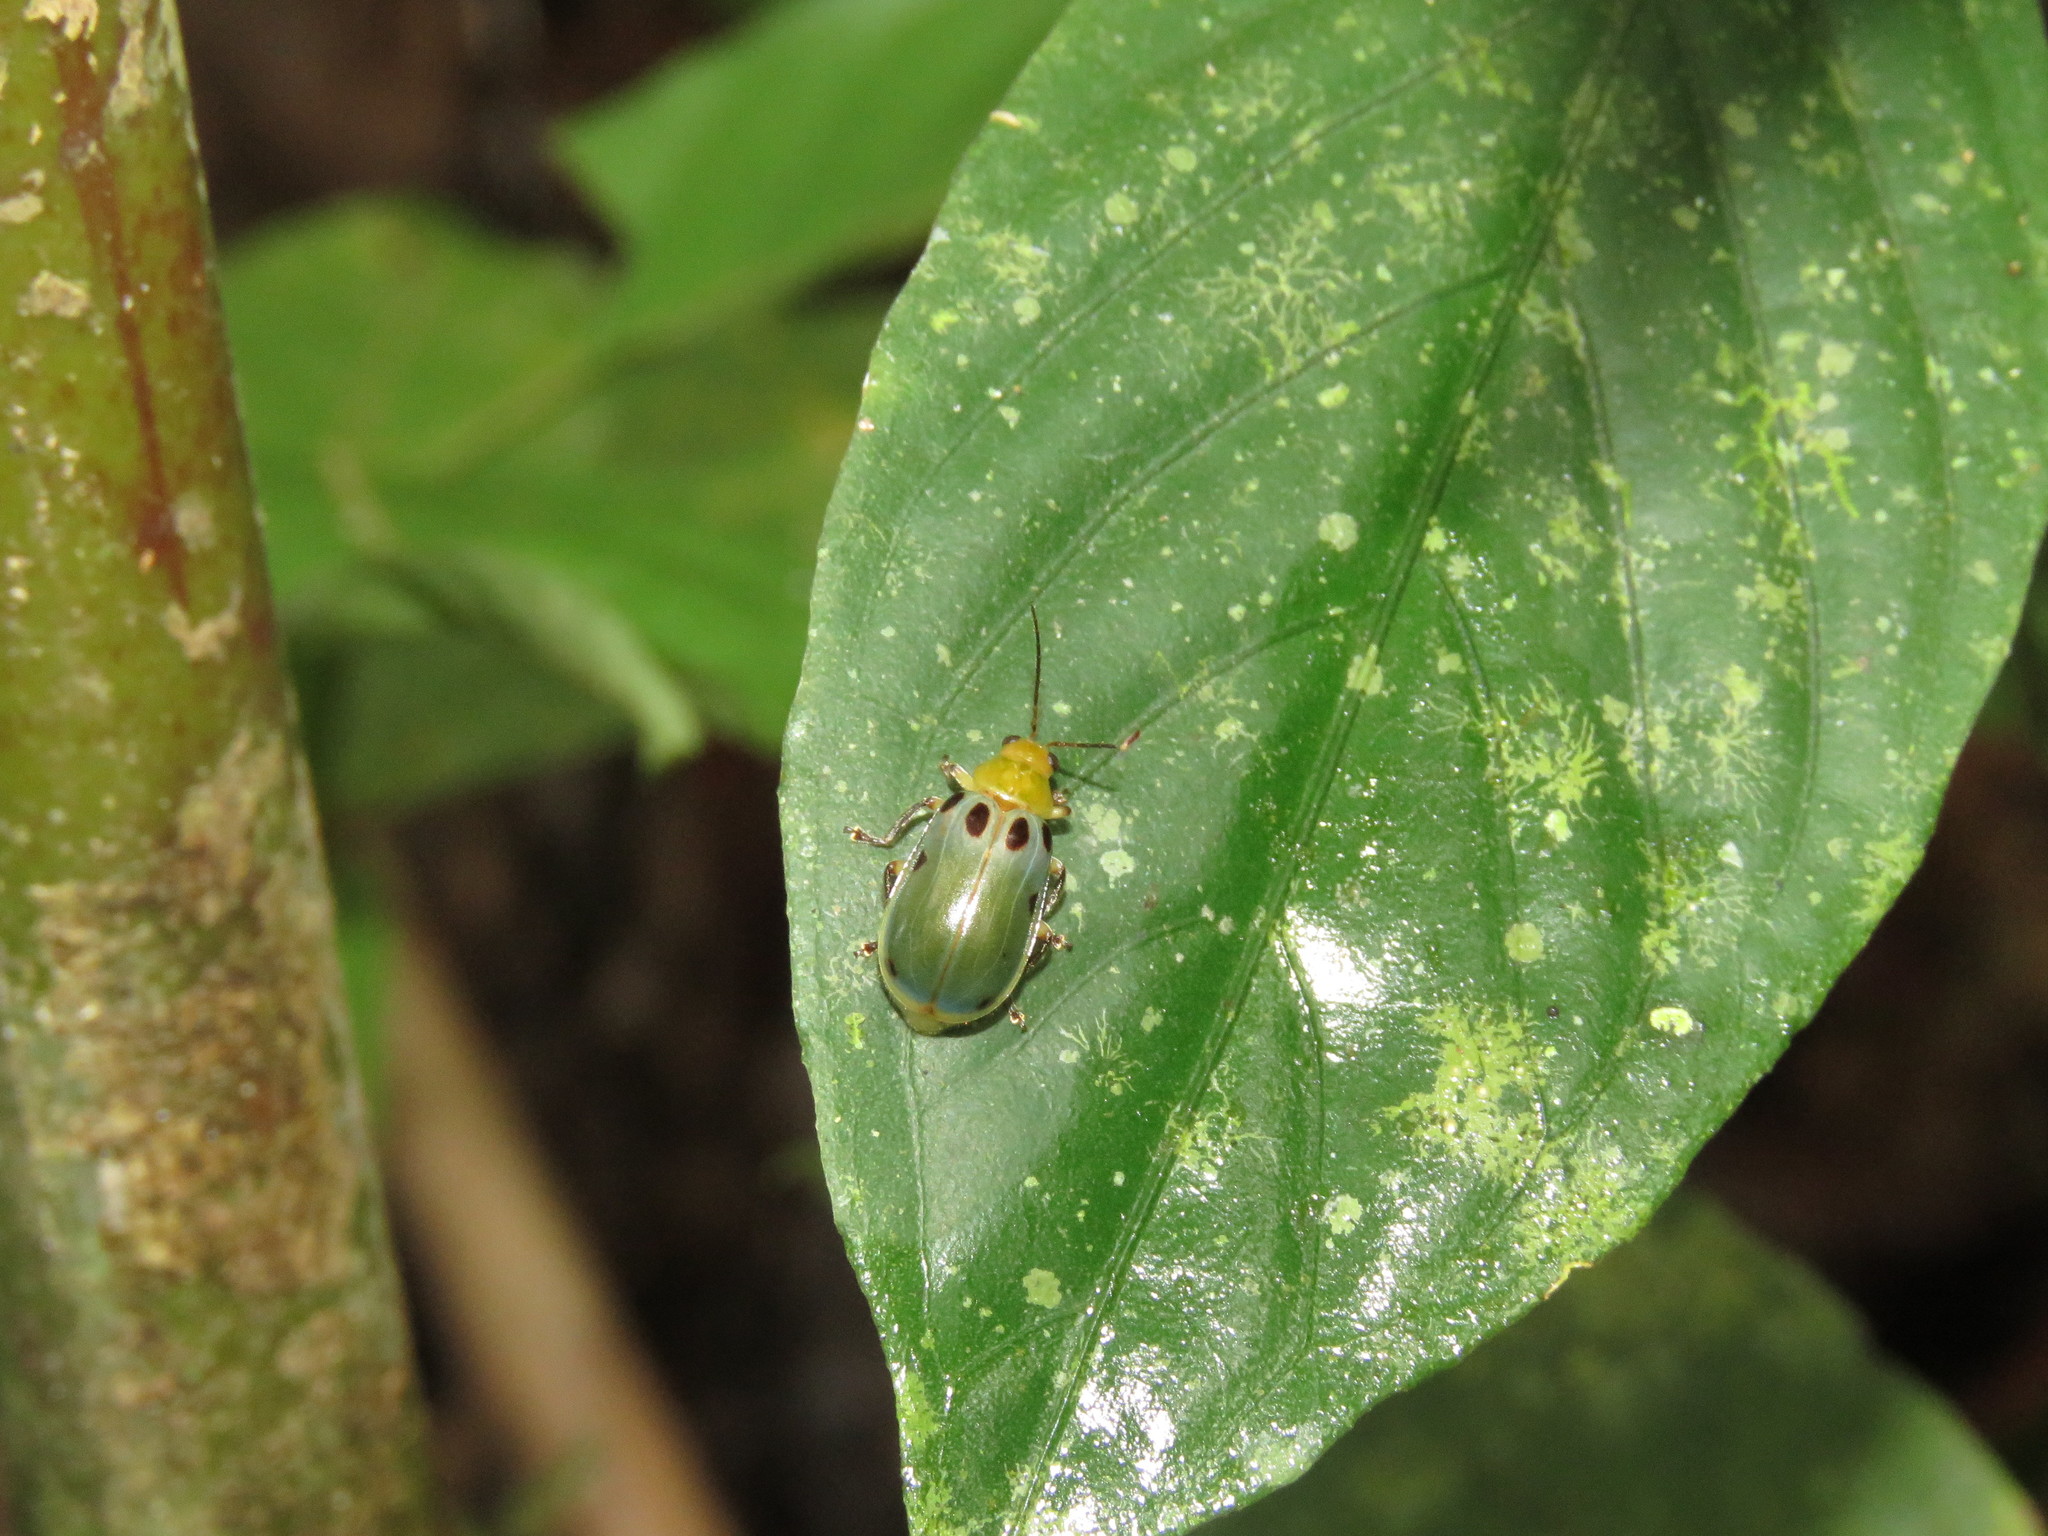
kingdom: Animalia
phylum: Arthropoda
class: Insecta
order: Coleoptera
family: Chrysomelidae
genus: Exora
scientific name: Exora obsoleta
